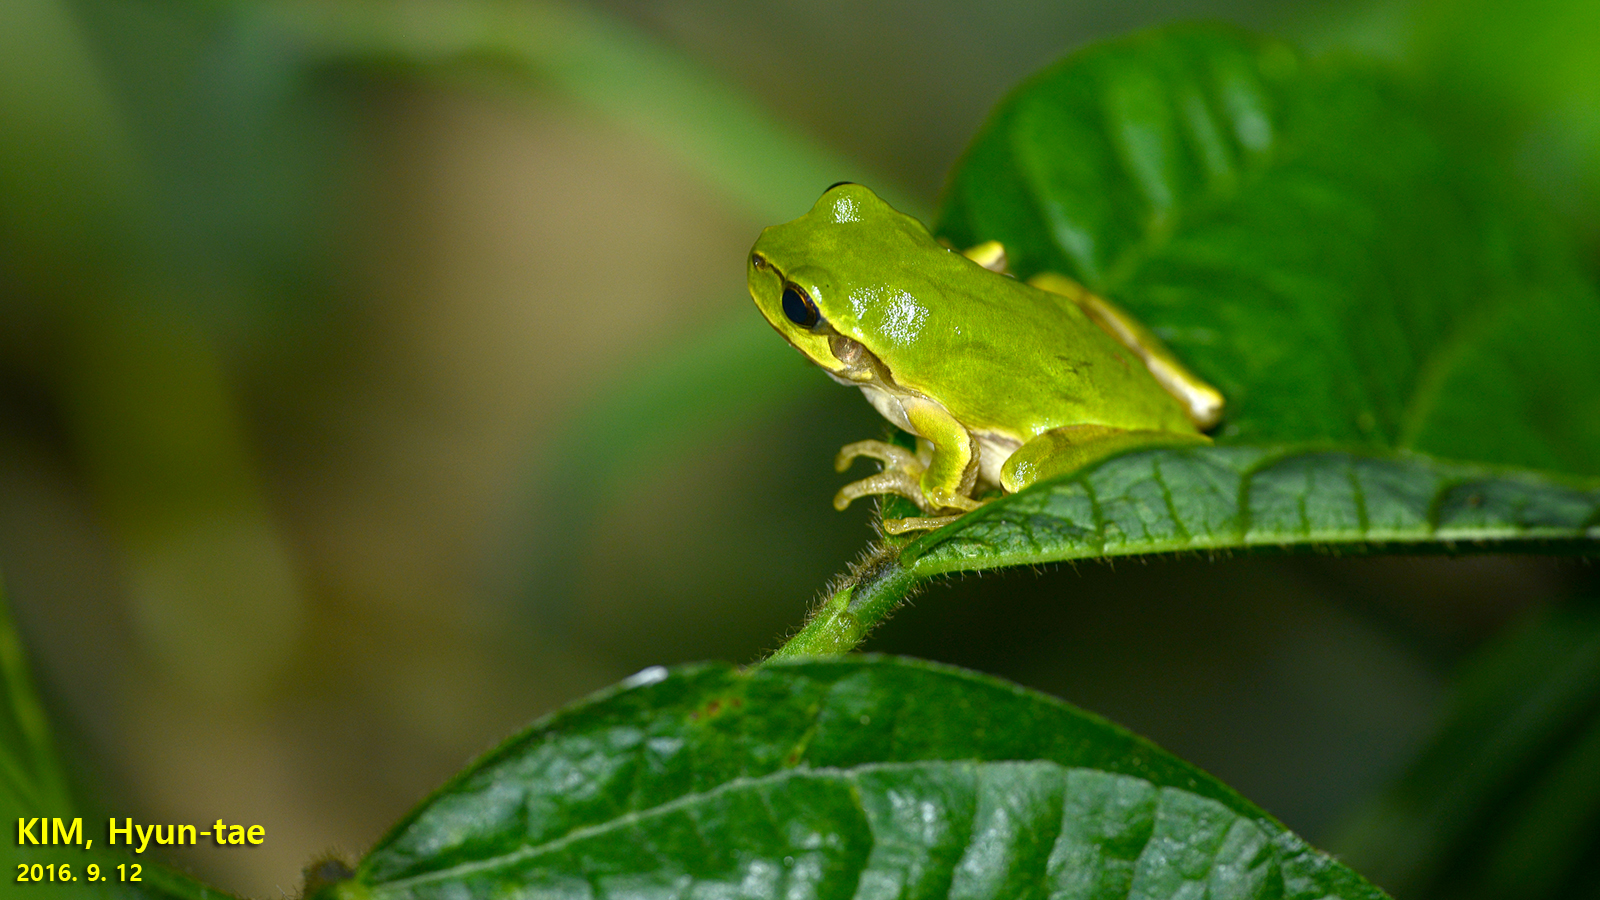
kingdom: Animalia
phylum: Chordata
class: Amphibia
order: Anura
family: Hylidae
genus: Dryophytes
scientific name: Dryophytes japonicus
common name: Japanese treefrog
